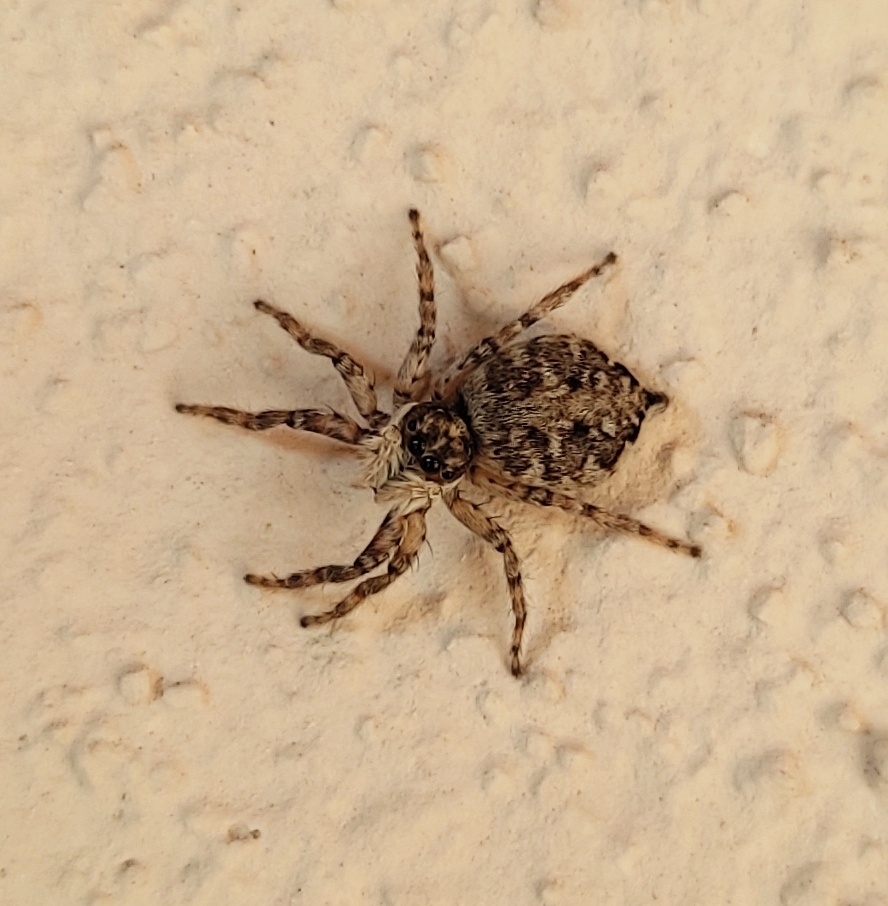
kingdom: Animalia
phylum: Arthropoda
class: Arachnida
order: Araneae
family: Salticidae
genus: Menemerus
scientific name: Menemerus semilimbatus
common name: Jumping spider
